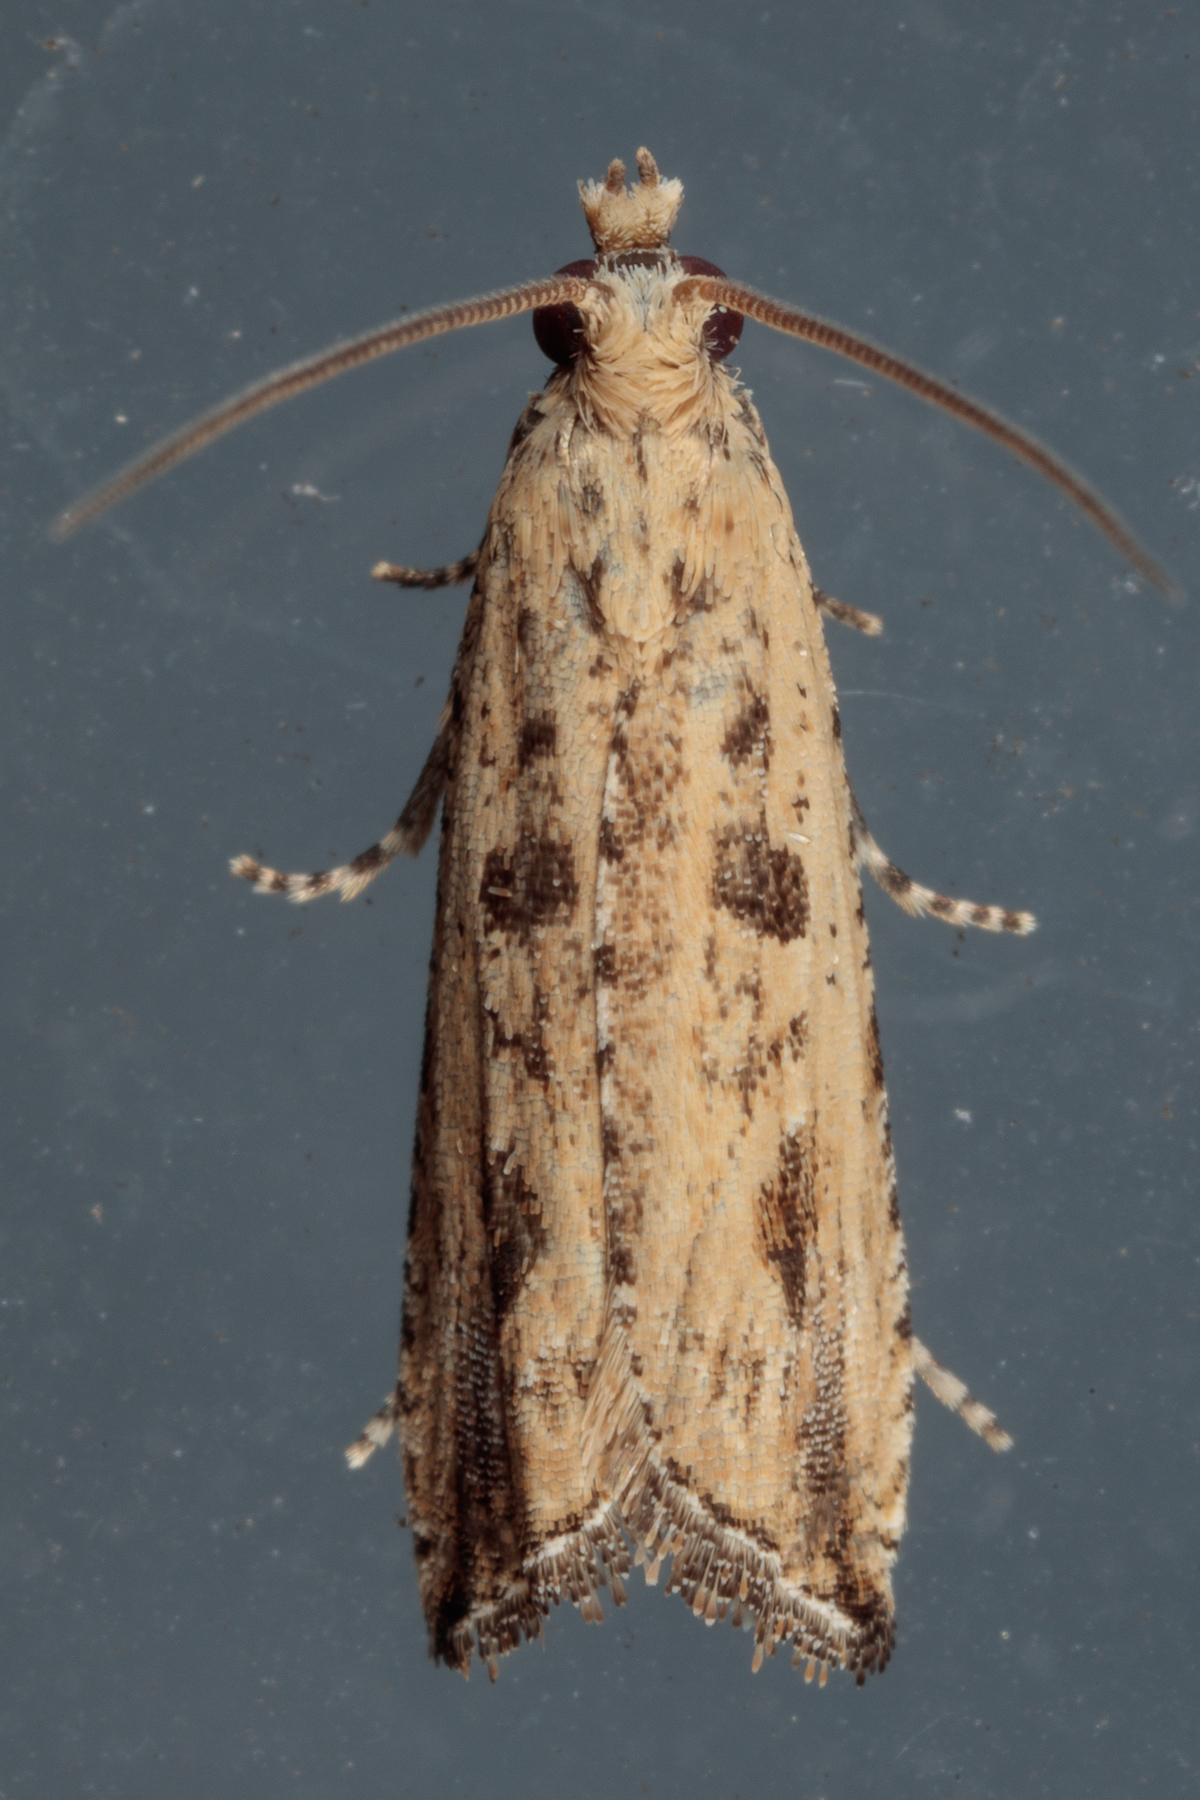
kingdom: Animalia
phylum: Arthropoda
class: Insecta
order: Lepidoptera
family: Tortricidae
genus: Bactra
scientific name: Bactra verutana
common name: Javelin moth
